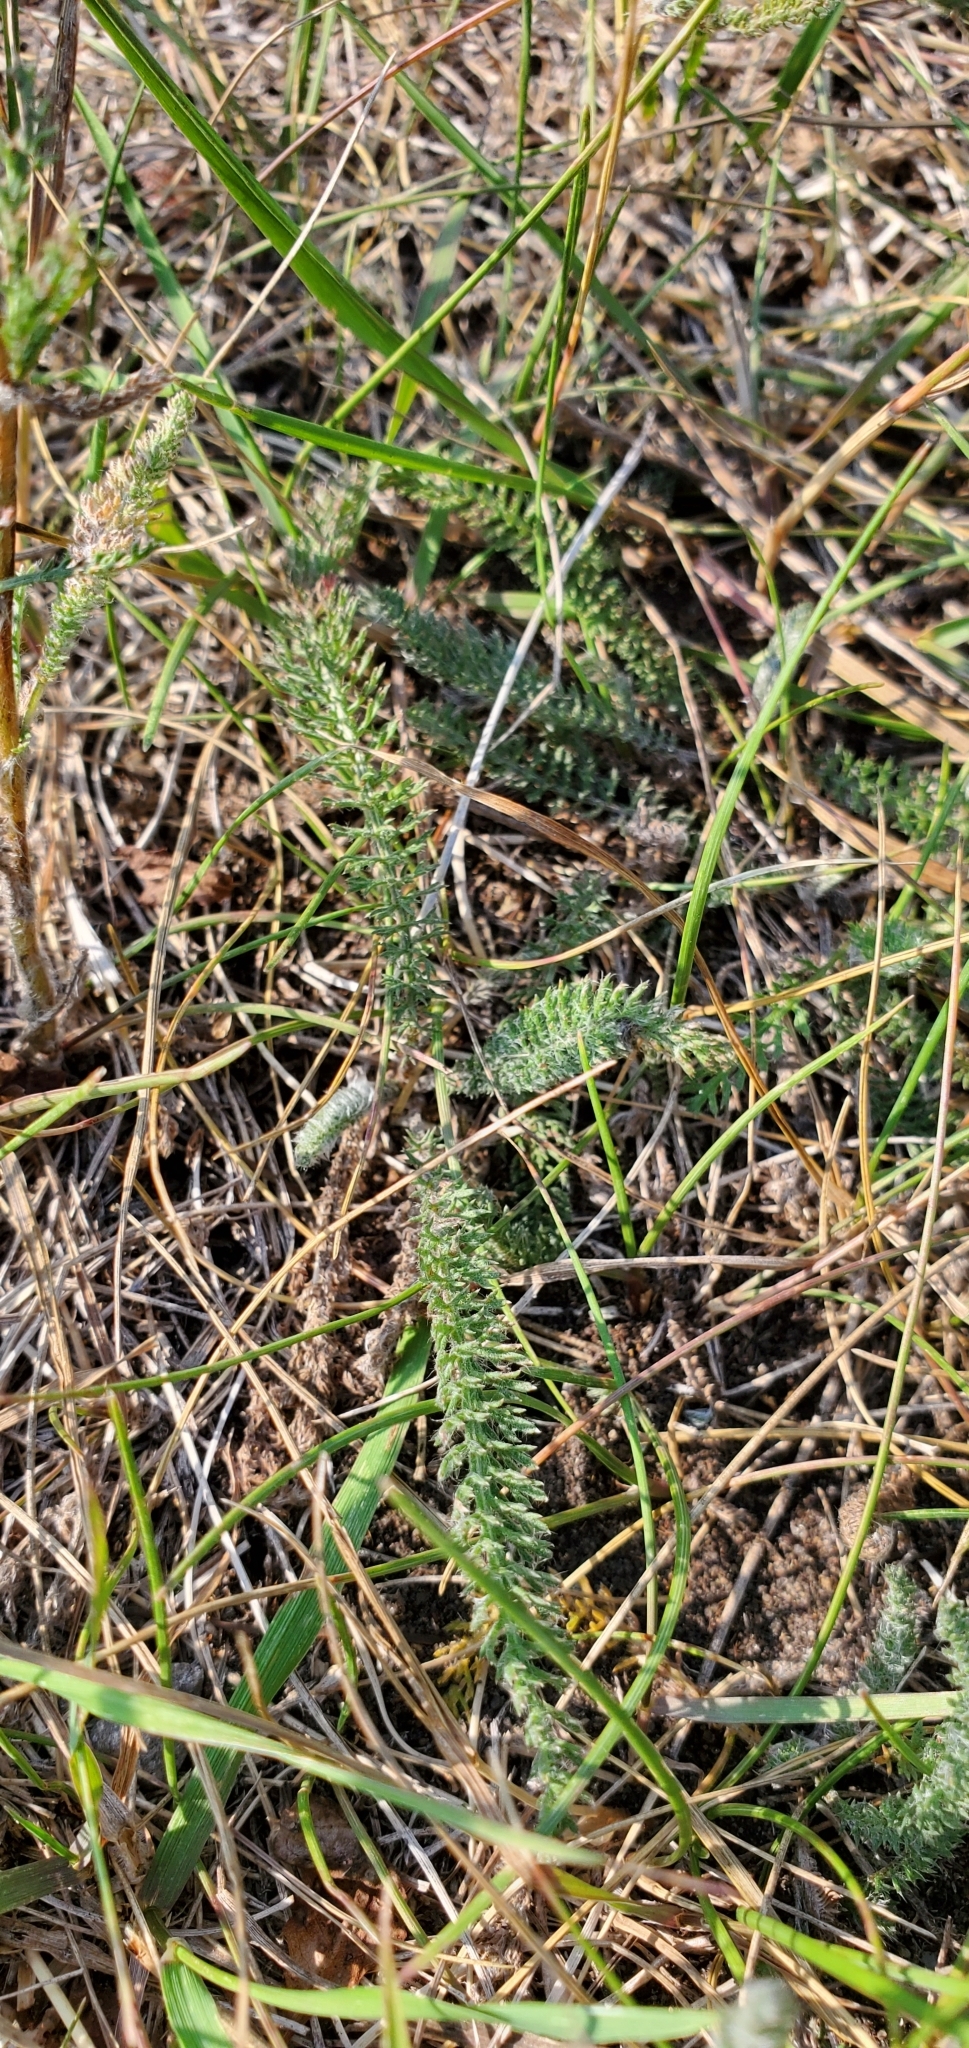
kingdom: Plantae
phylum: Tracheophyta
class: Magnoliopsida
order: Asterales
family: Asteraceae
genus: Achillea
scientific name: Achillea millefolium
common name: Yarrow
